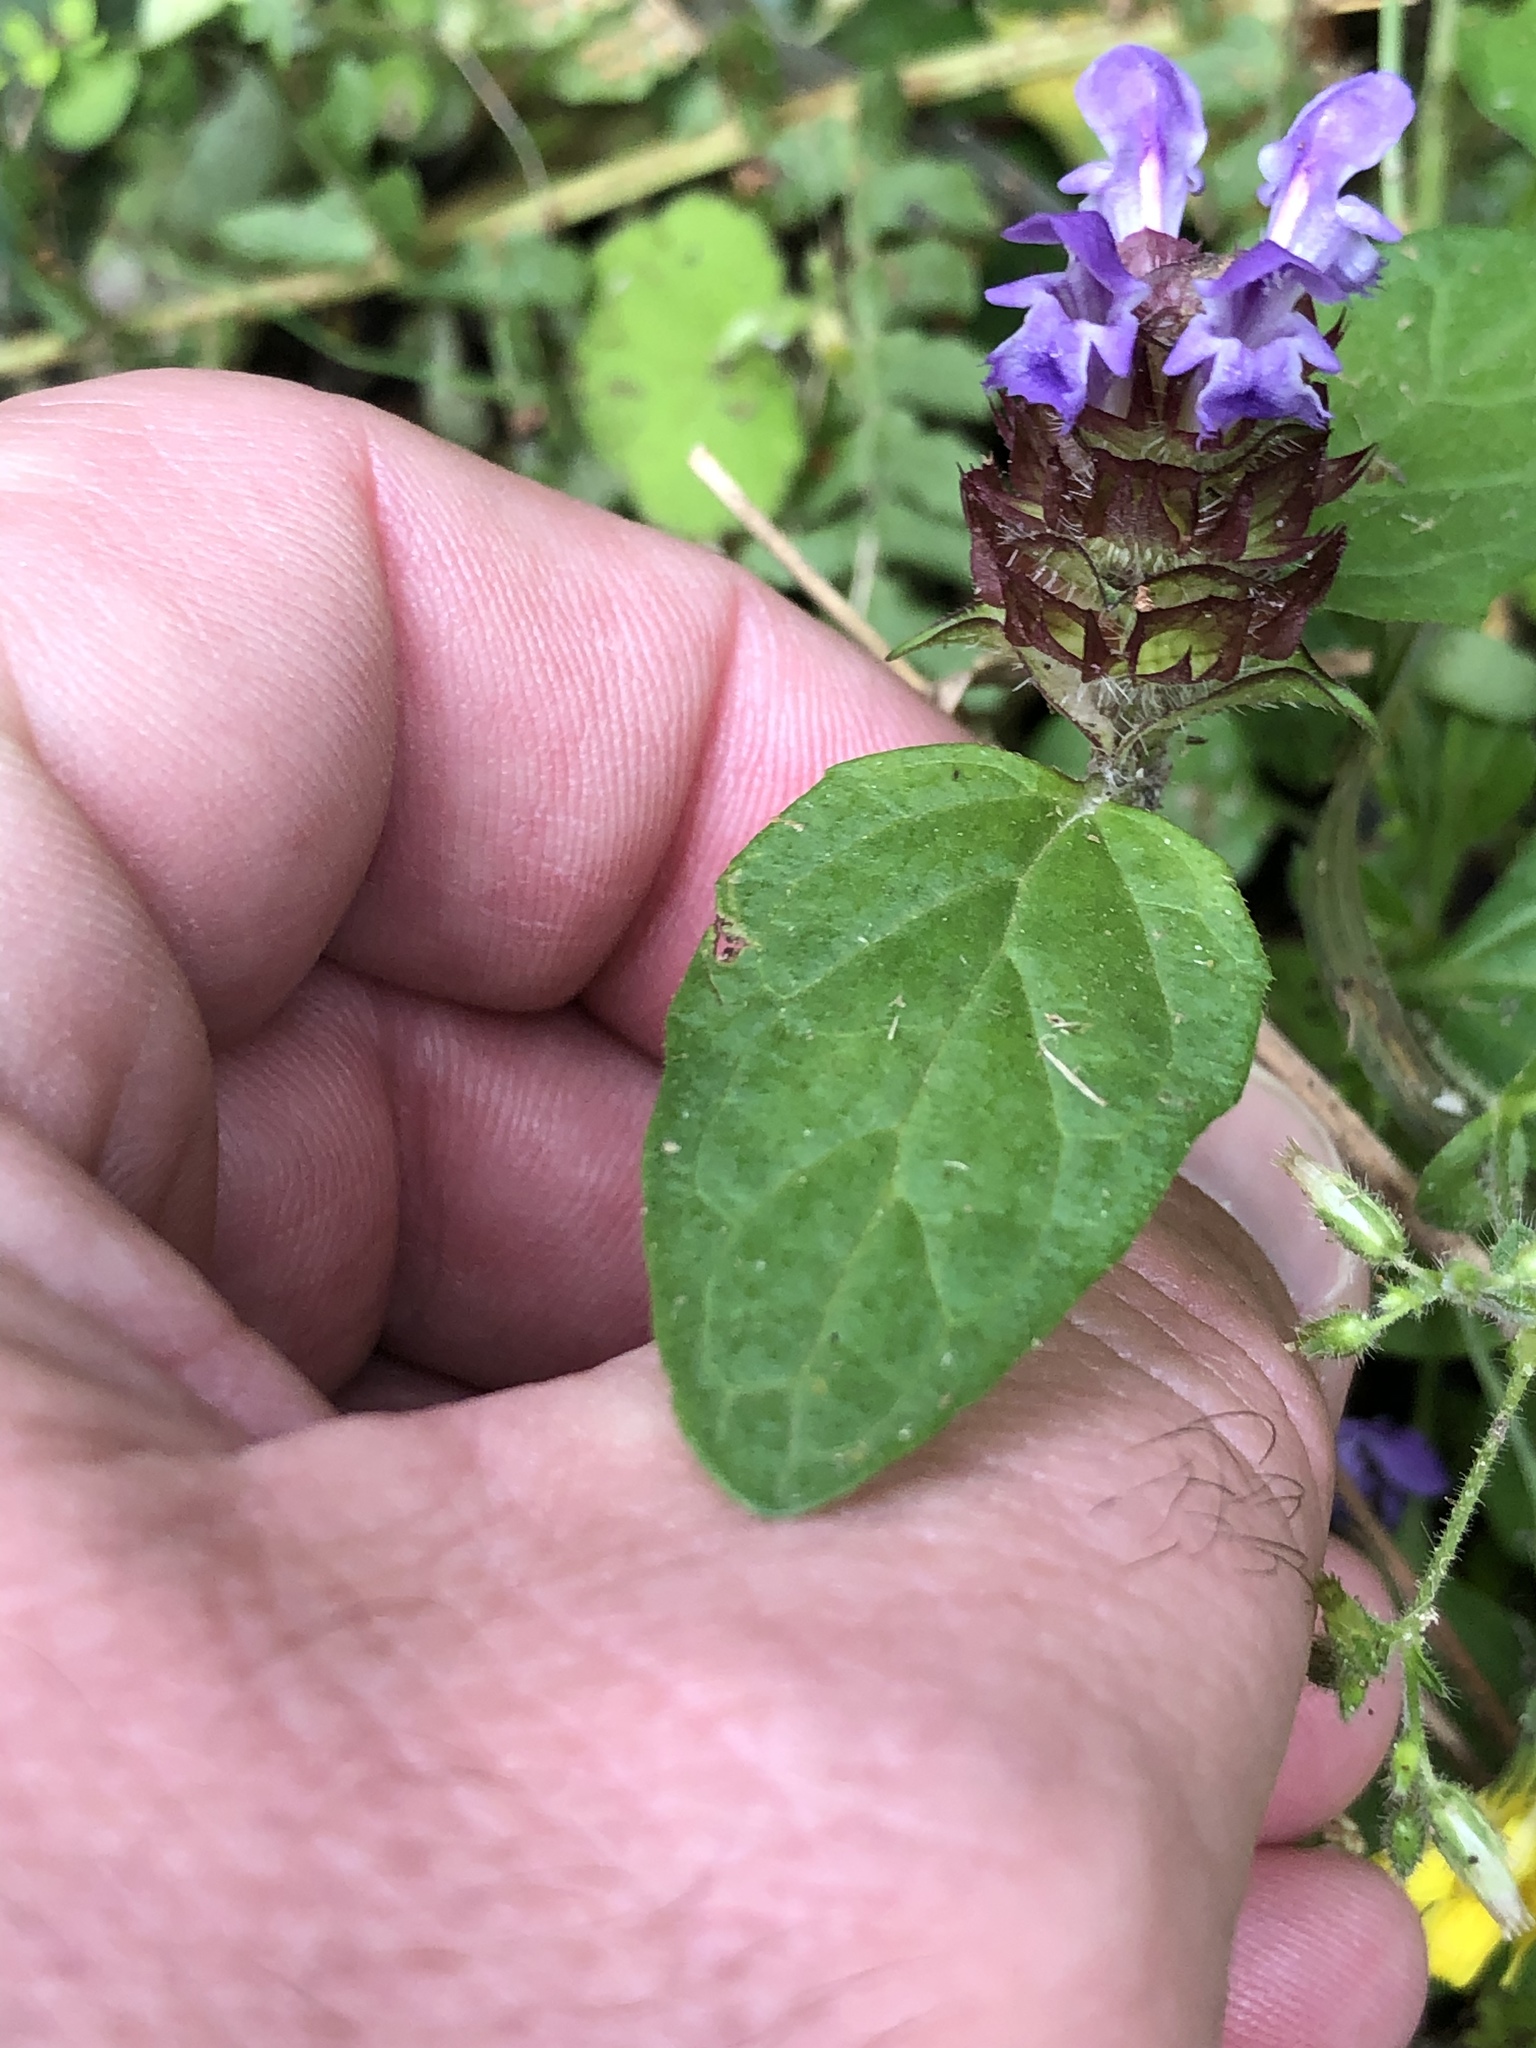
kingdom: Plantae
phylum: Tracheophyta
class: Magnoliopsida
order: Lamiales
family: Lamiaceae
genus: Prunella
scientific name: Prunella vulgaris
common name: Heal-all
